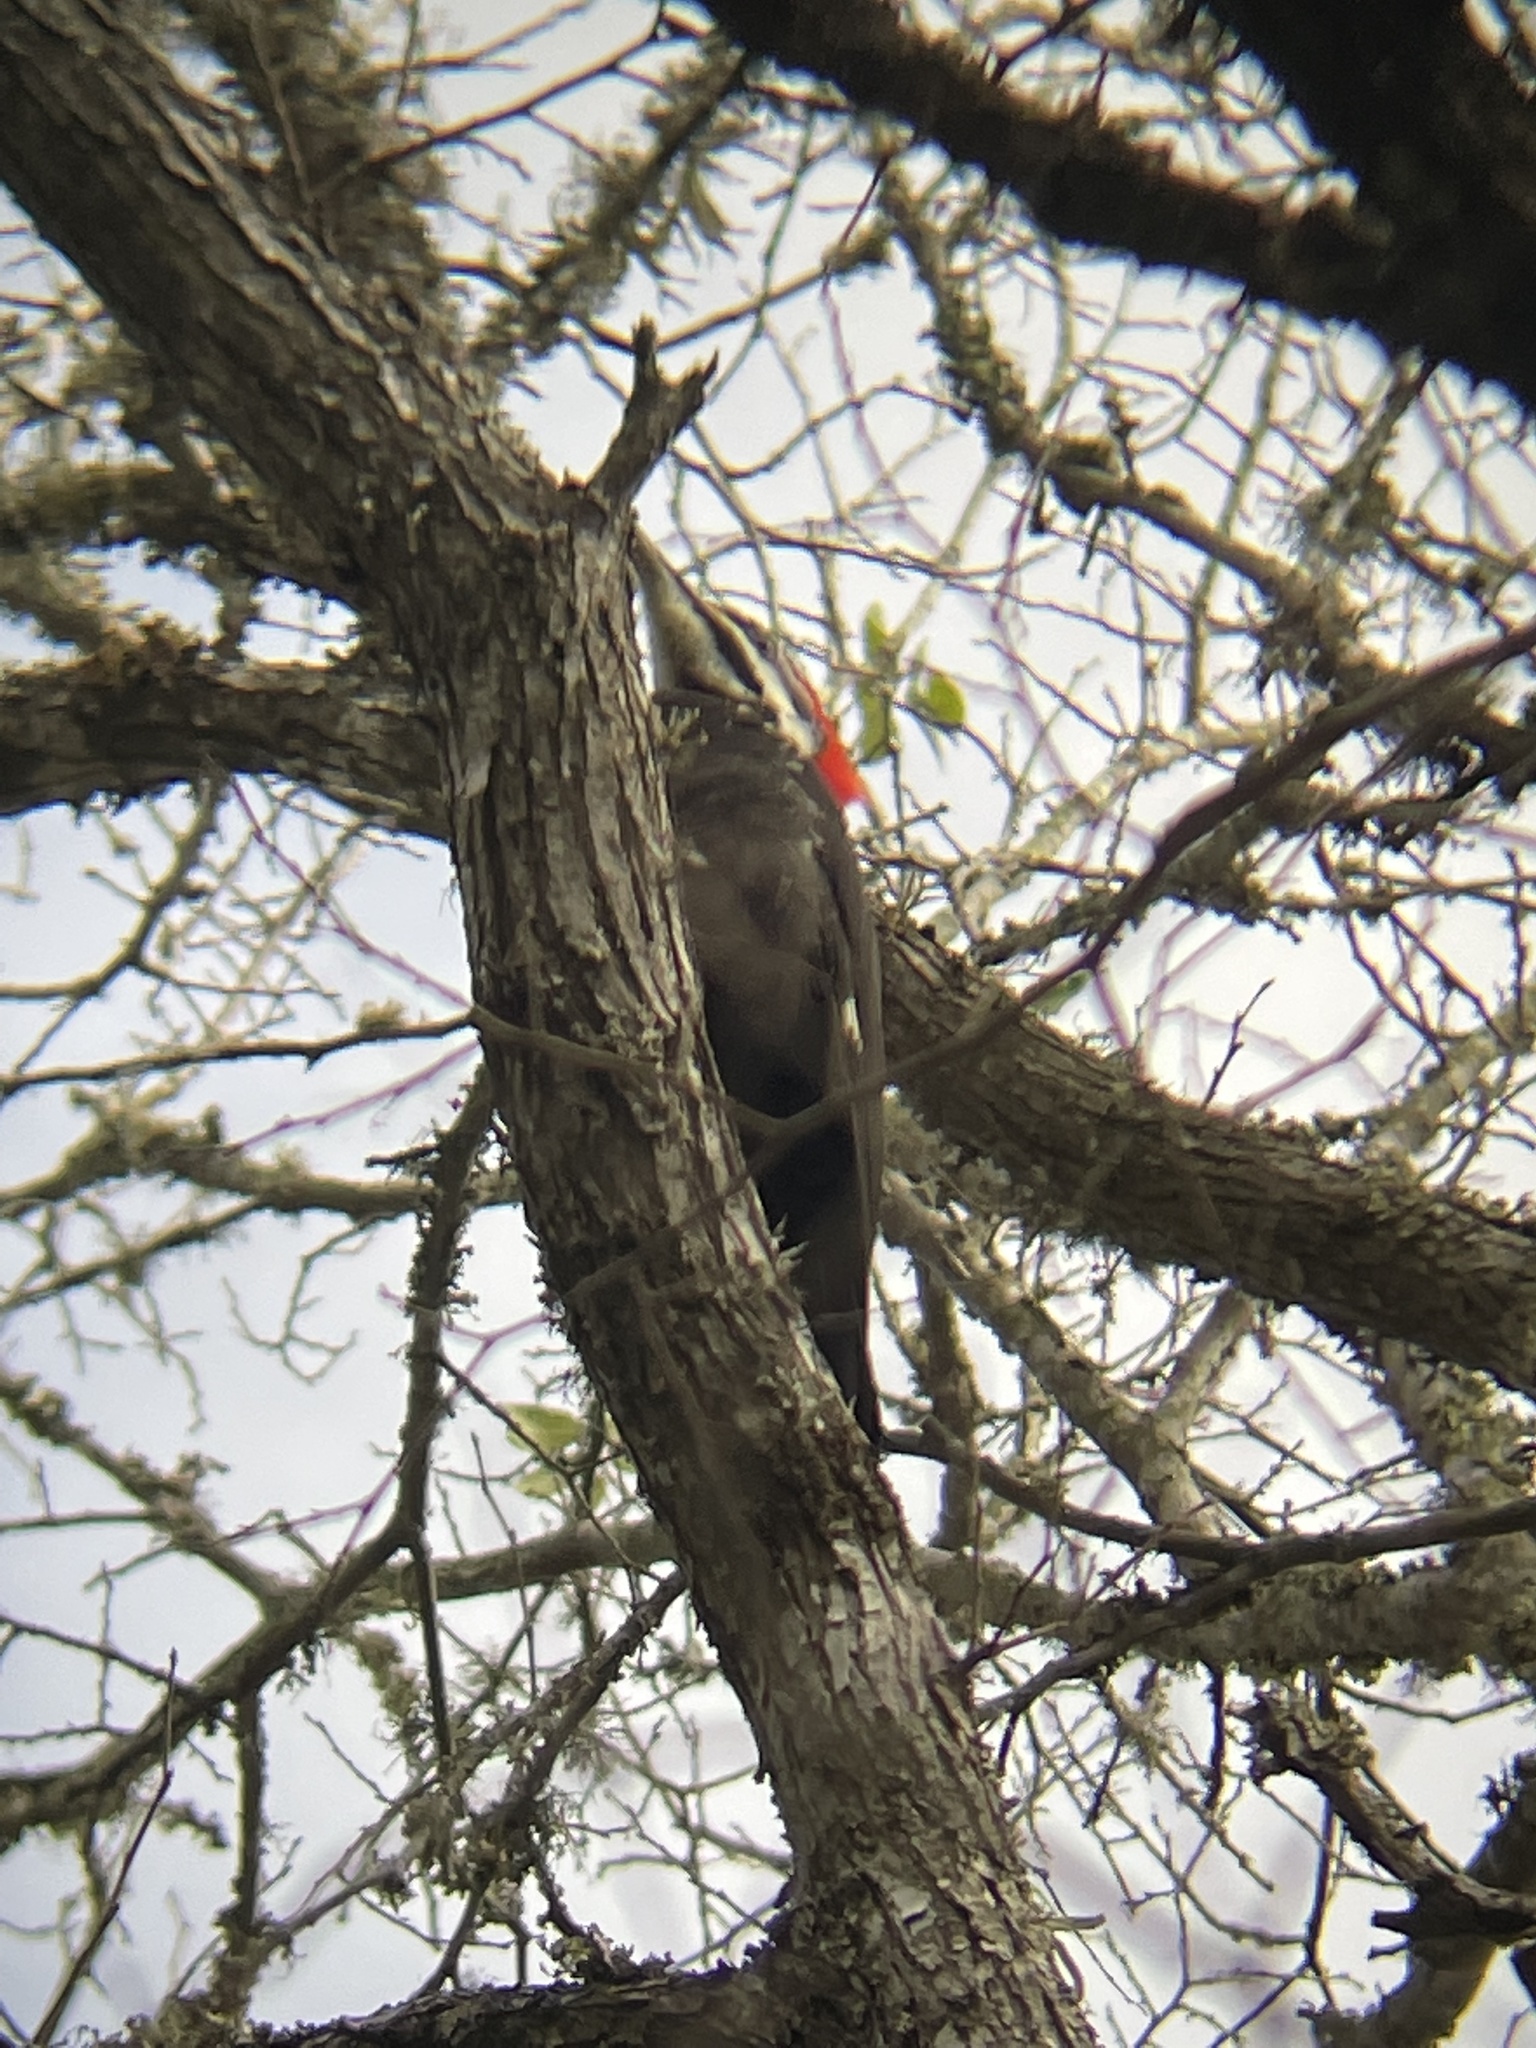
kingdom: Animalia
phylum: Chordata
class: Aves
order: Piciformes
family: Picidae
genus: Dryocopus
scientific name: Dryocopus pileatus
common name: Pileated woodpecker
